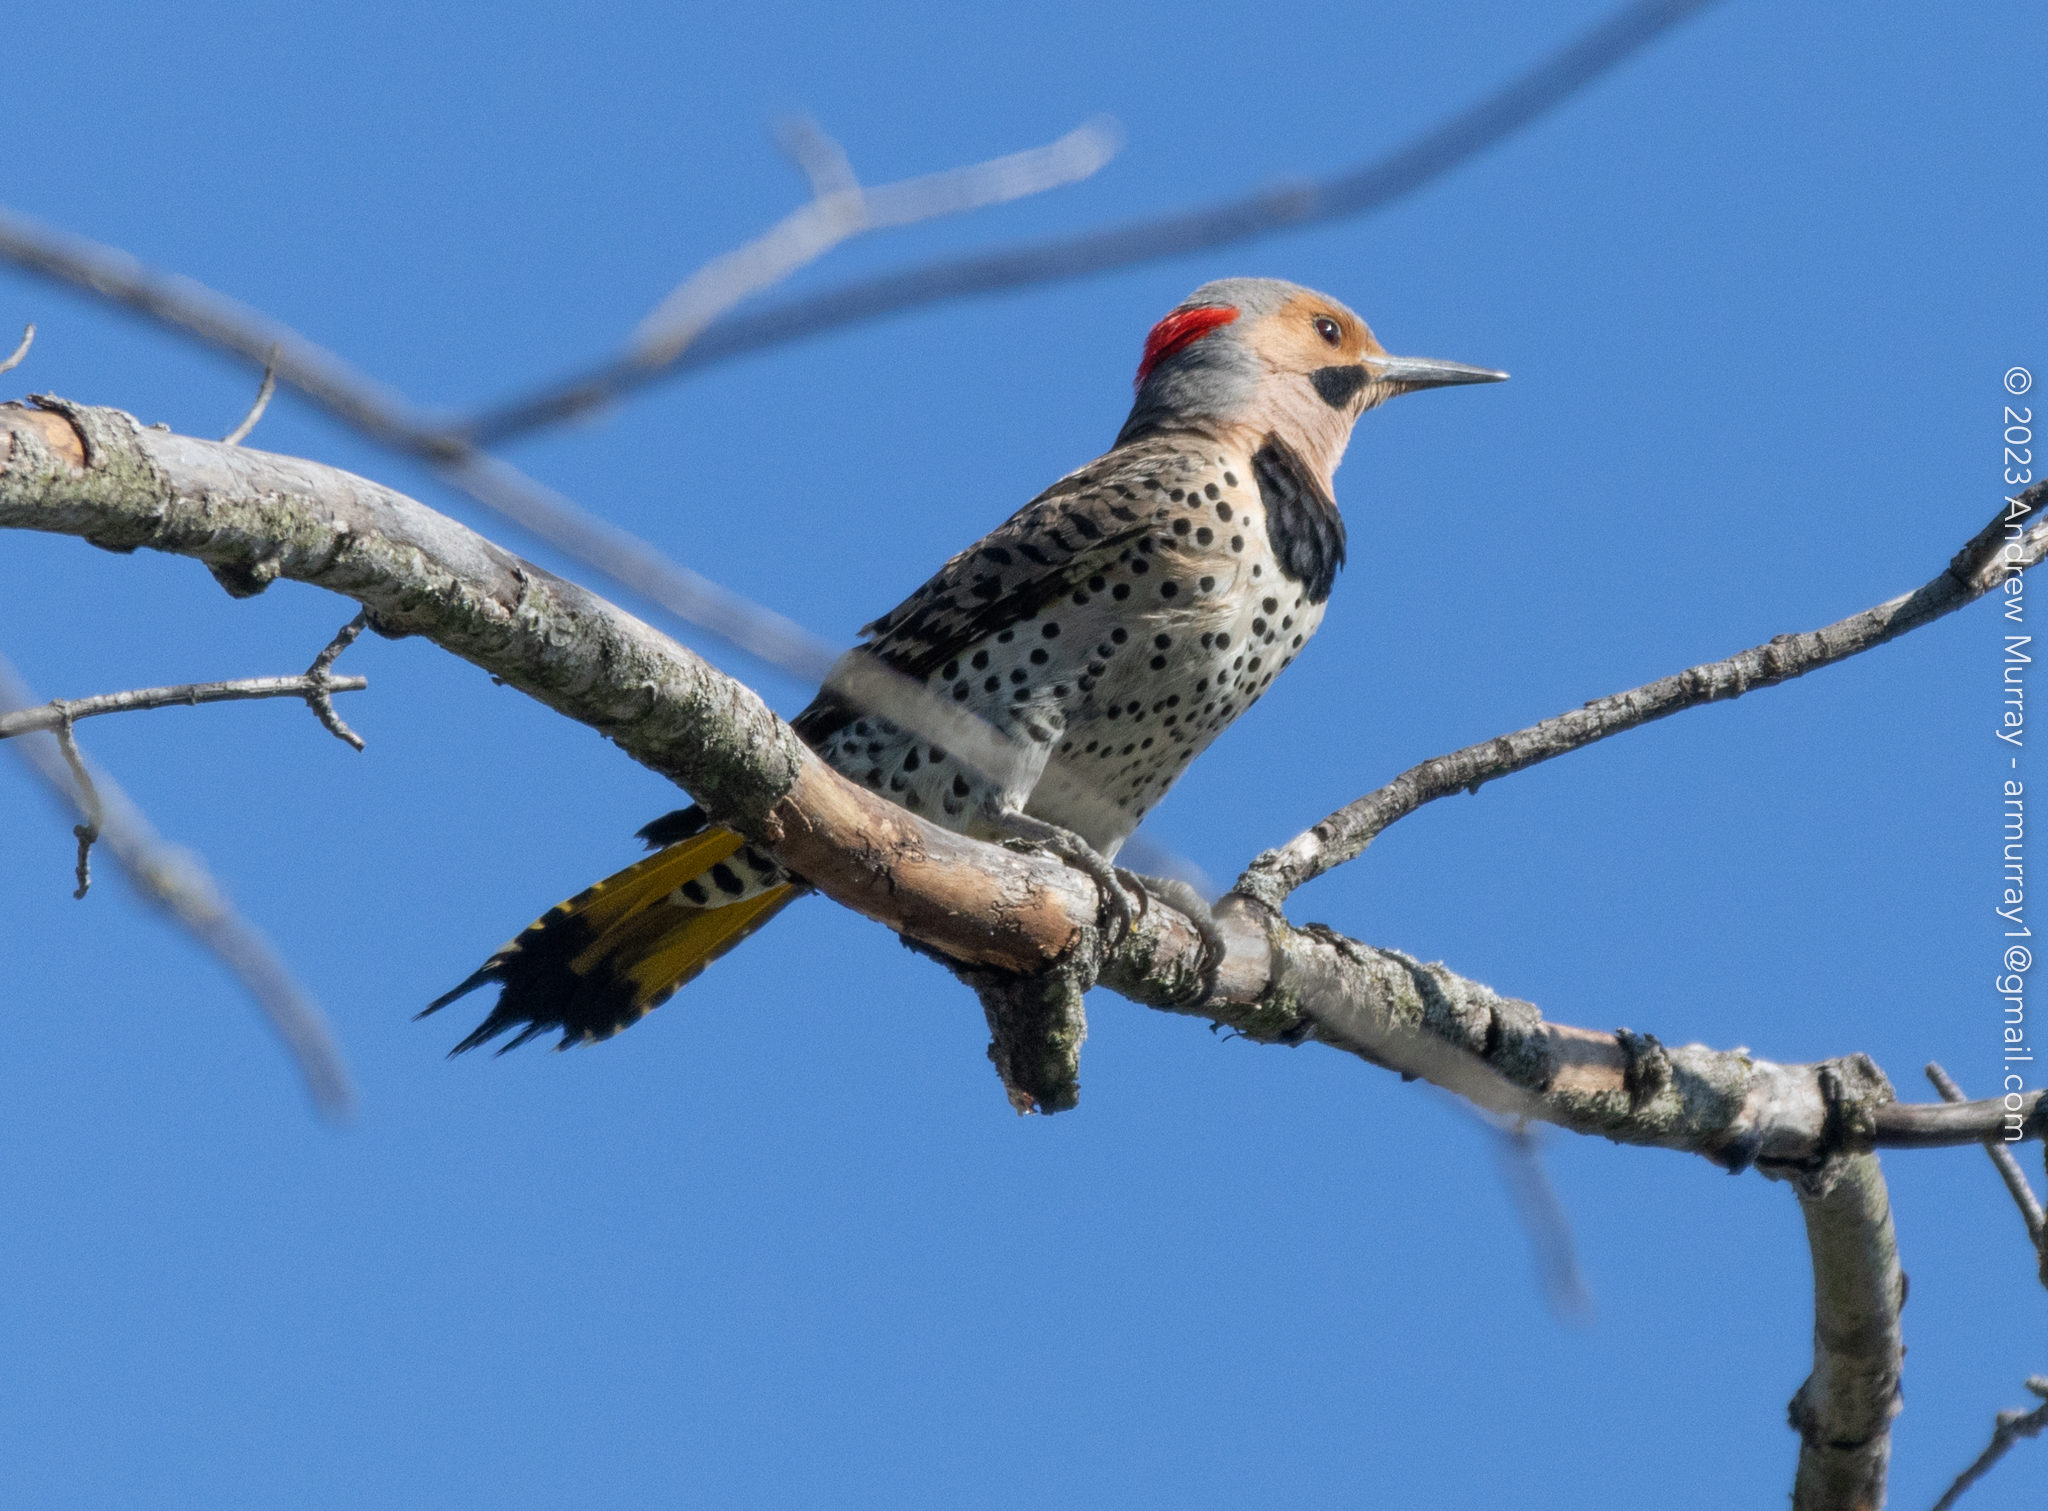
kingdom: Animalia
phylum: Chordata
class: Aves
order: Piciformes
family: Picidae
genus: Colaptes
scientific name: Colaptes auratus
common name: Northern flicker
